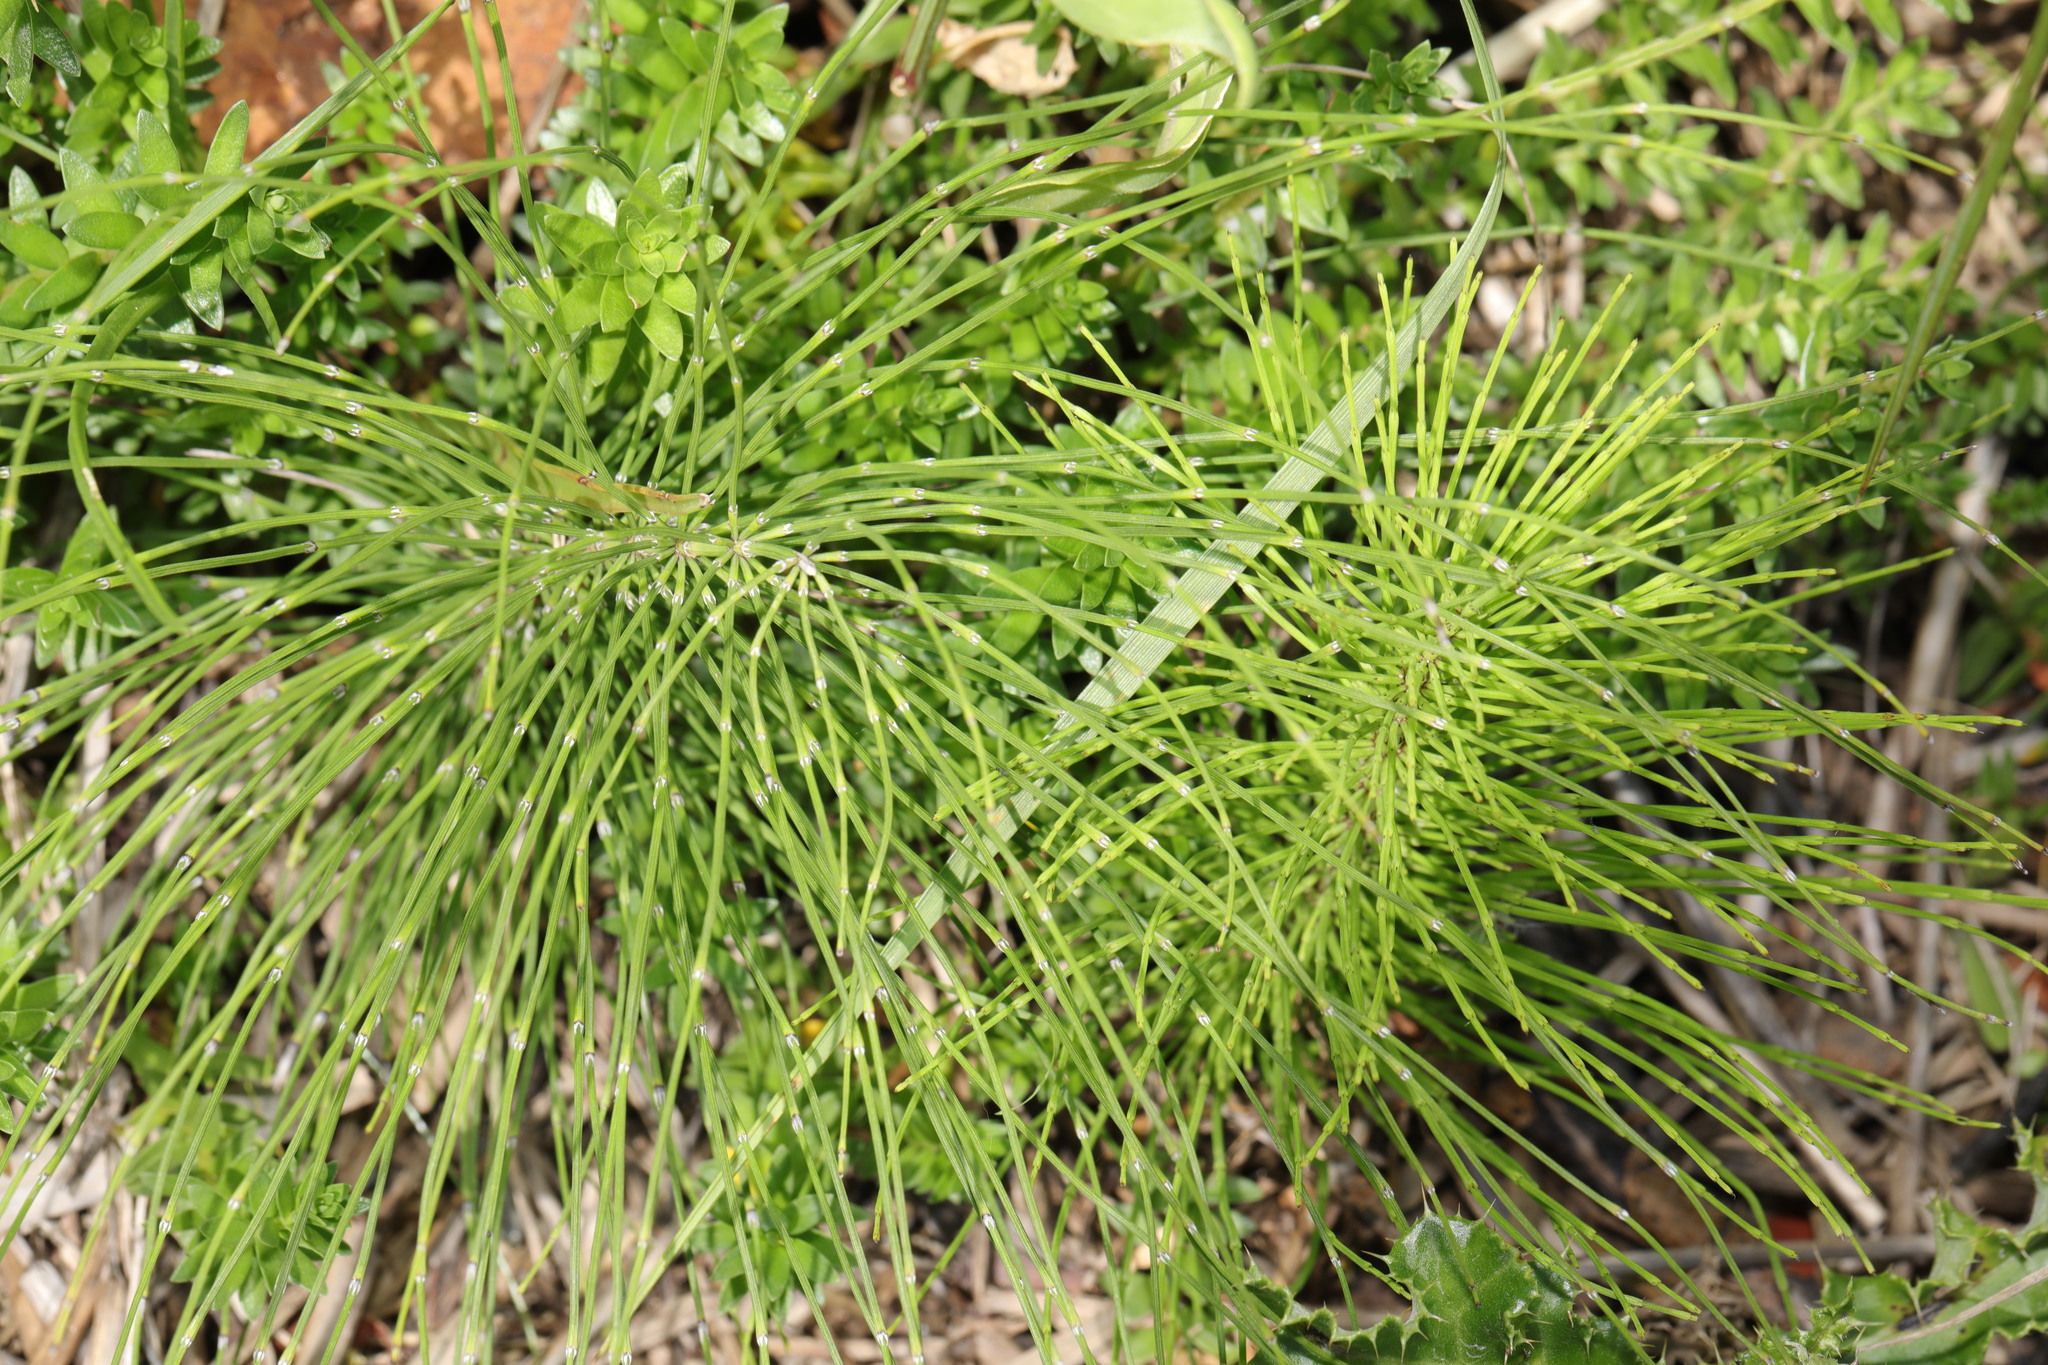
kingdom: Plantae
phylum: Tracheophyta
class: Polypodiopsida
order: Equisetales
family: Equisetaceae
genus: Equisetum
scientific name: Equisetum telmateia
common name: Great horsetail
